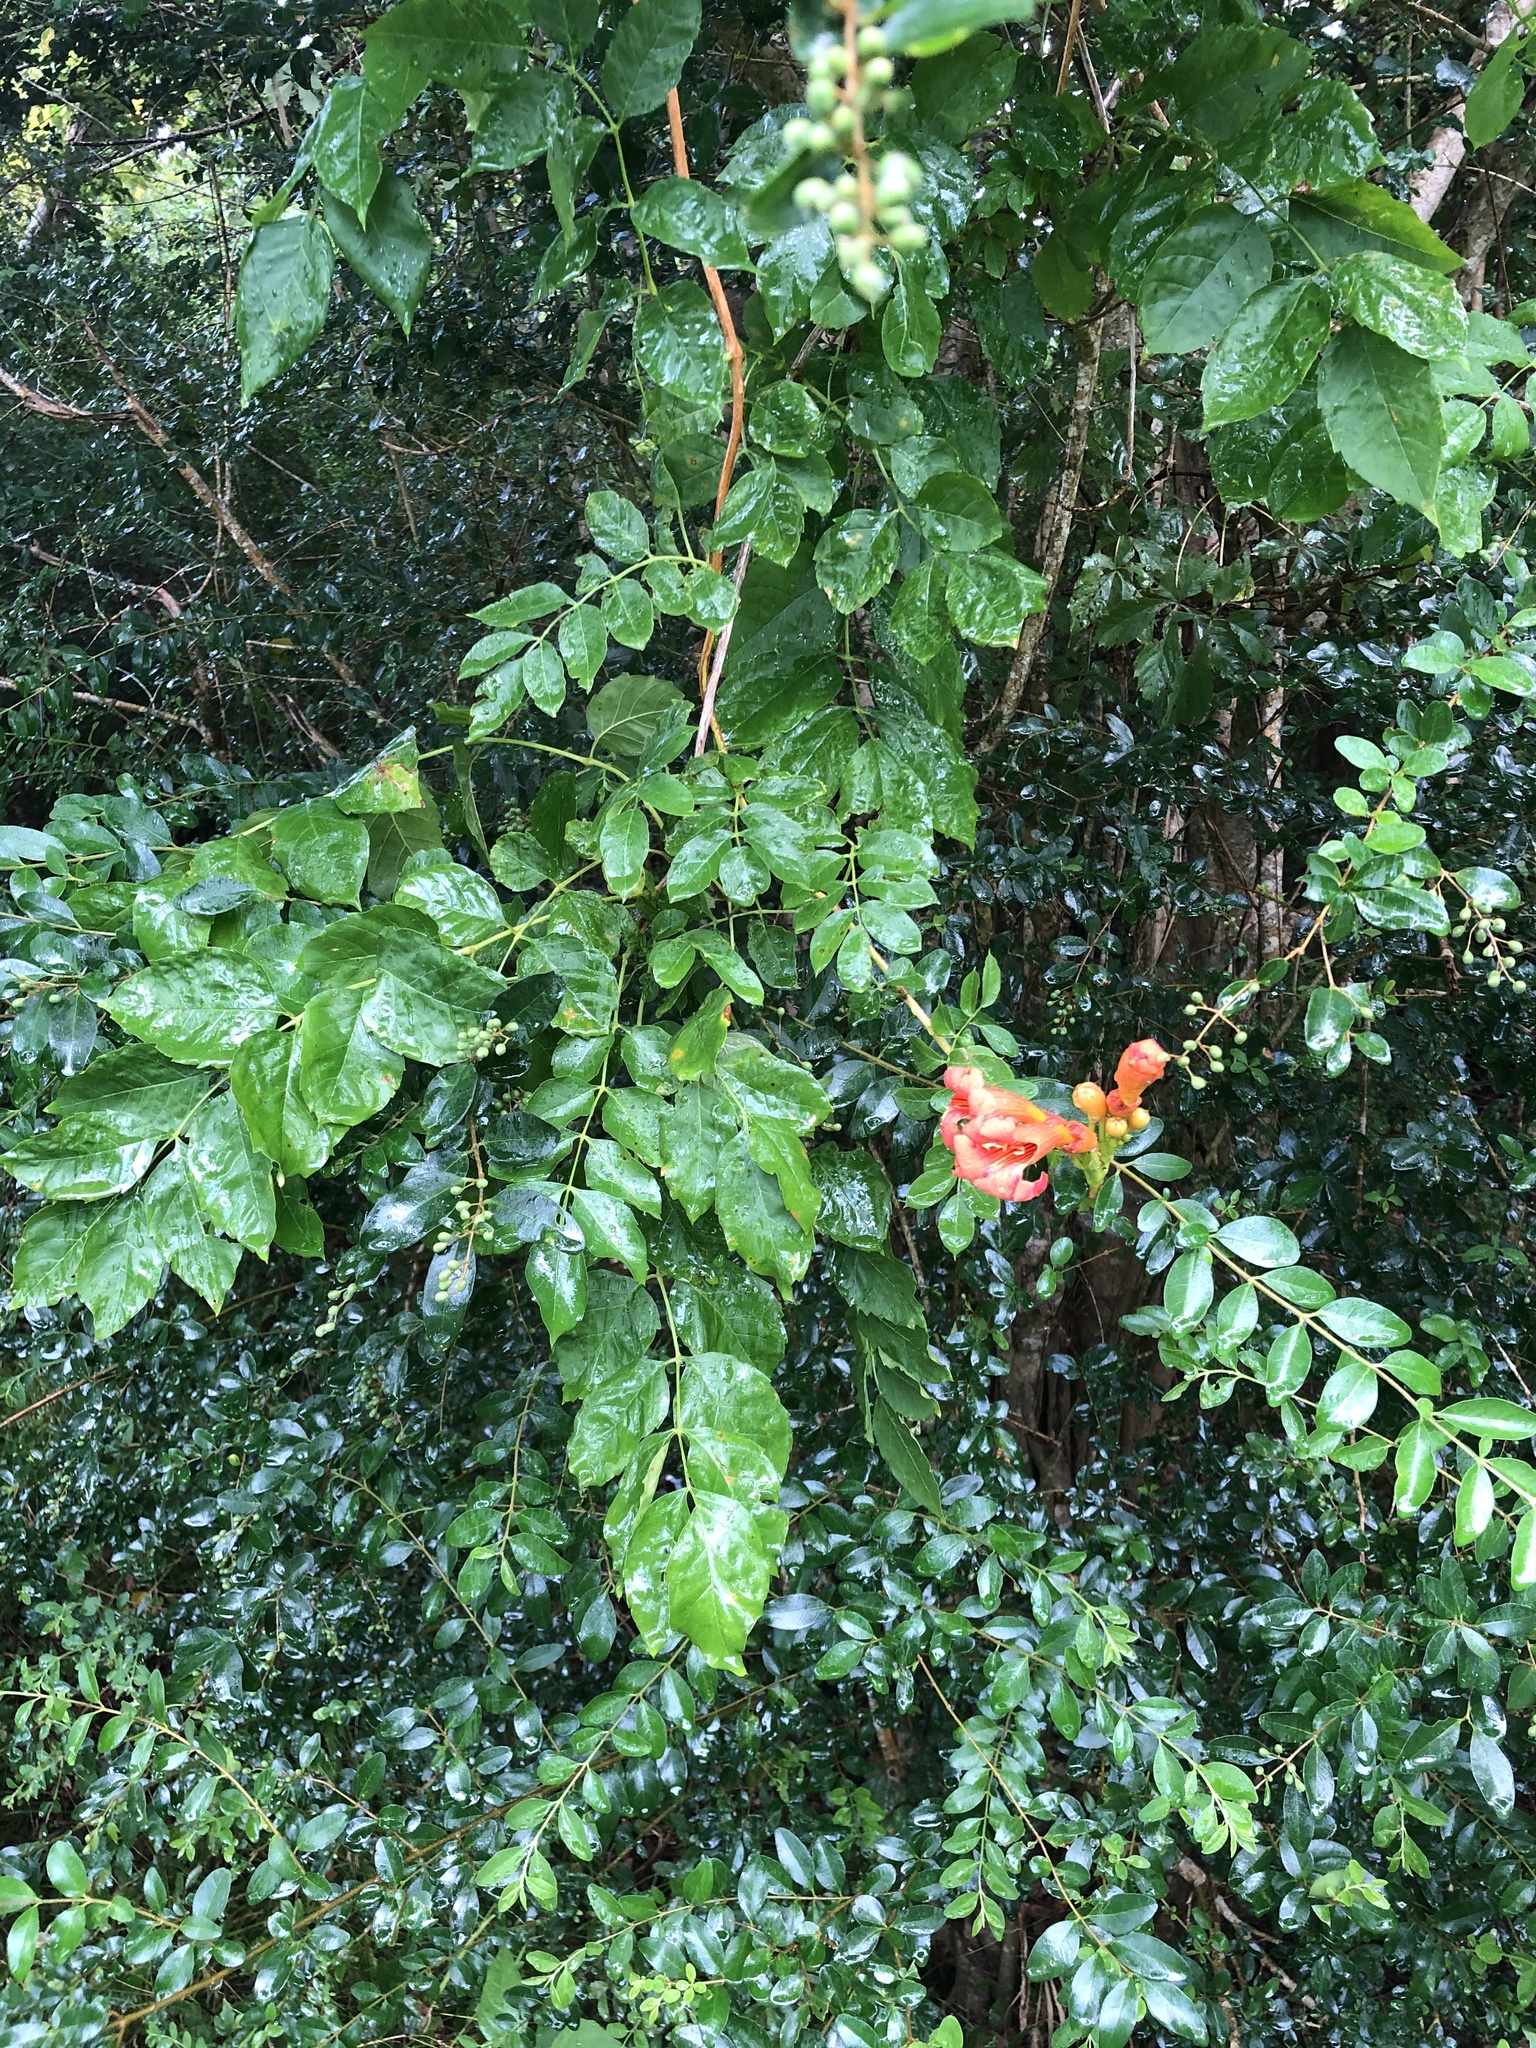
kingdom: Plantae
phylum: Tracheophyta
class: Magnoliopsida
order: Lamiales
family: Bignoniaceae
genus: Campsis
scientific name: Campsis radicans
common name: Trumpet-creeper
